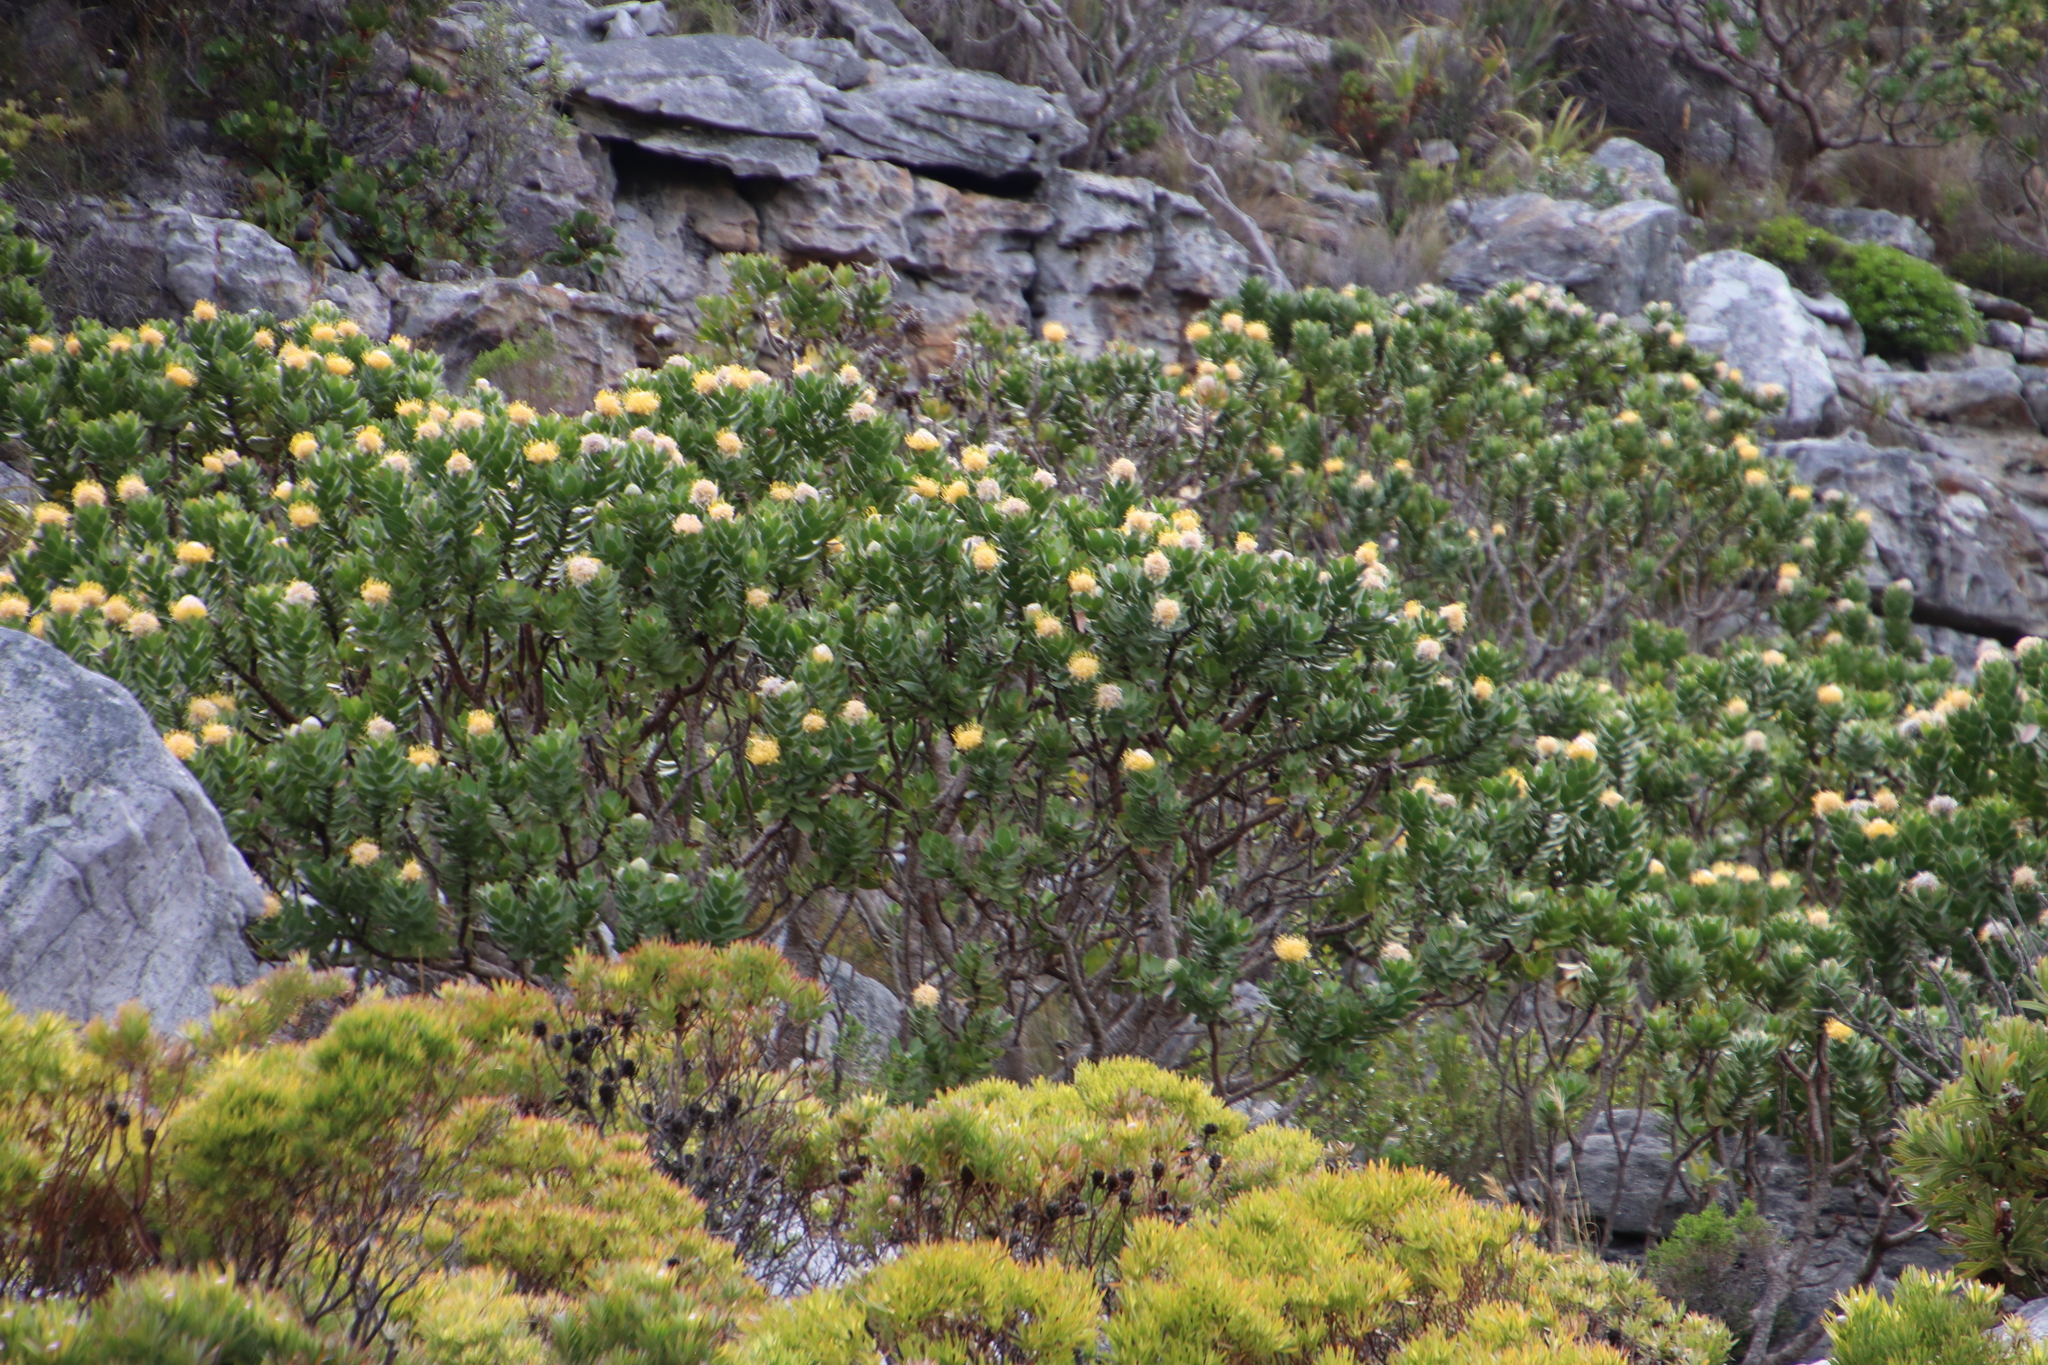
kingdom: Plantae
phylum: Tracheophyta
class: Magnoliopsida
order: Proteales
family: Proteaceae
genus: Leucospermum
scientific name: Leucospermum conocarpodendron
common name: Tree pincushion
